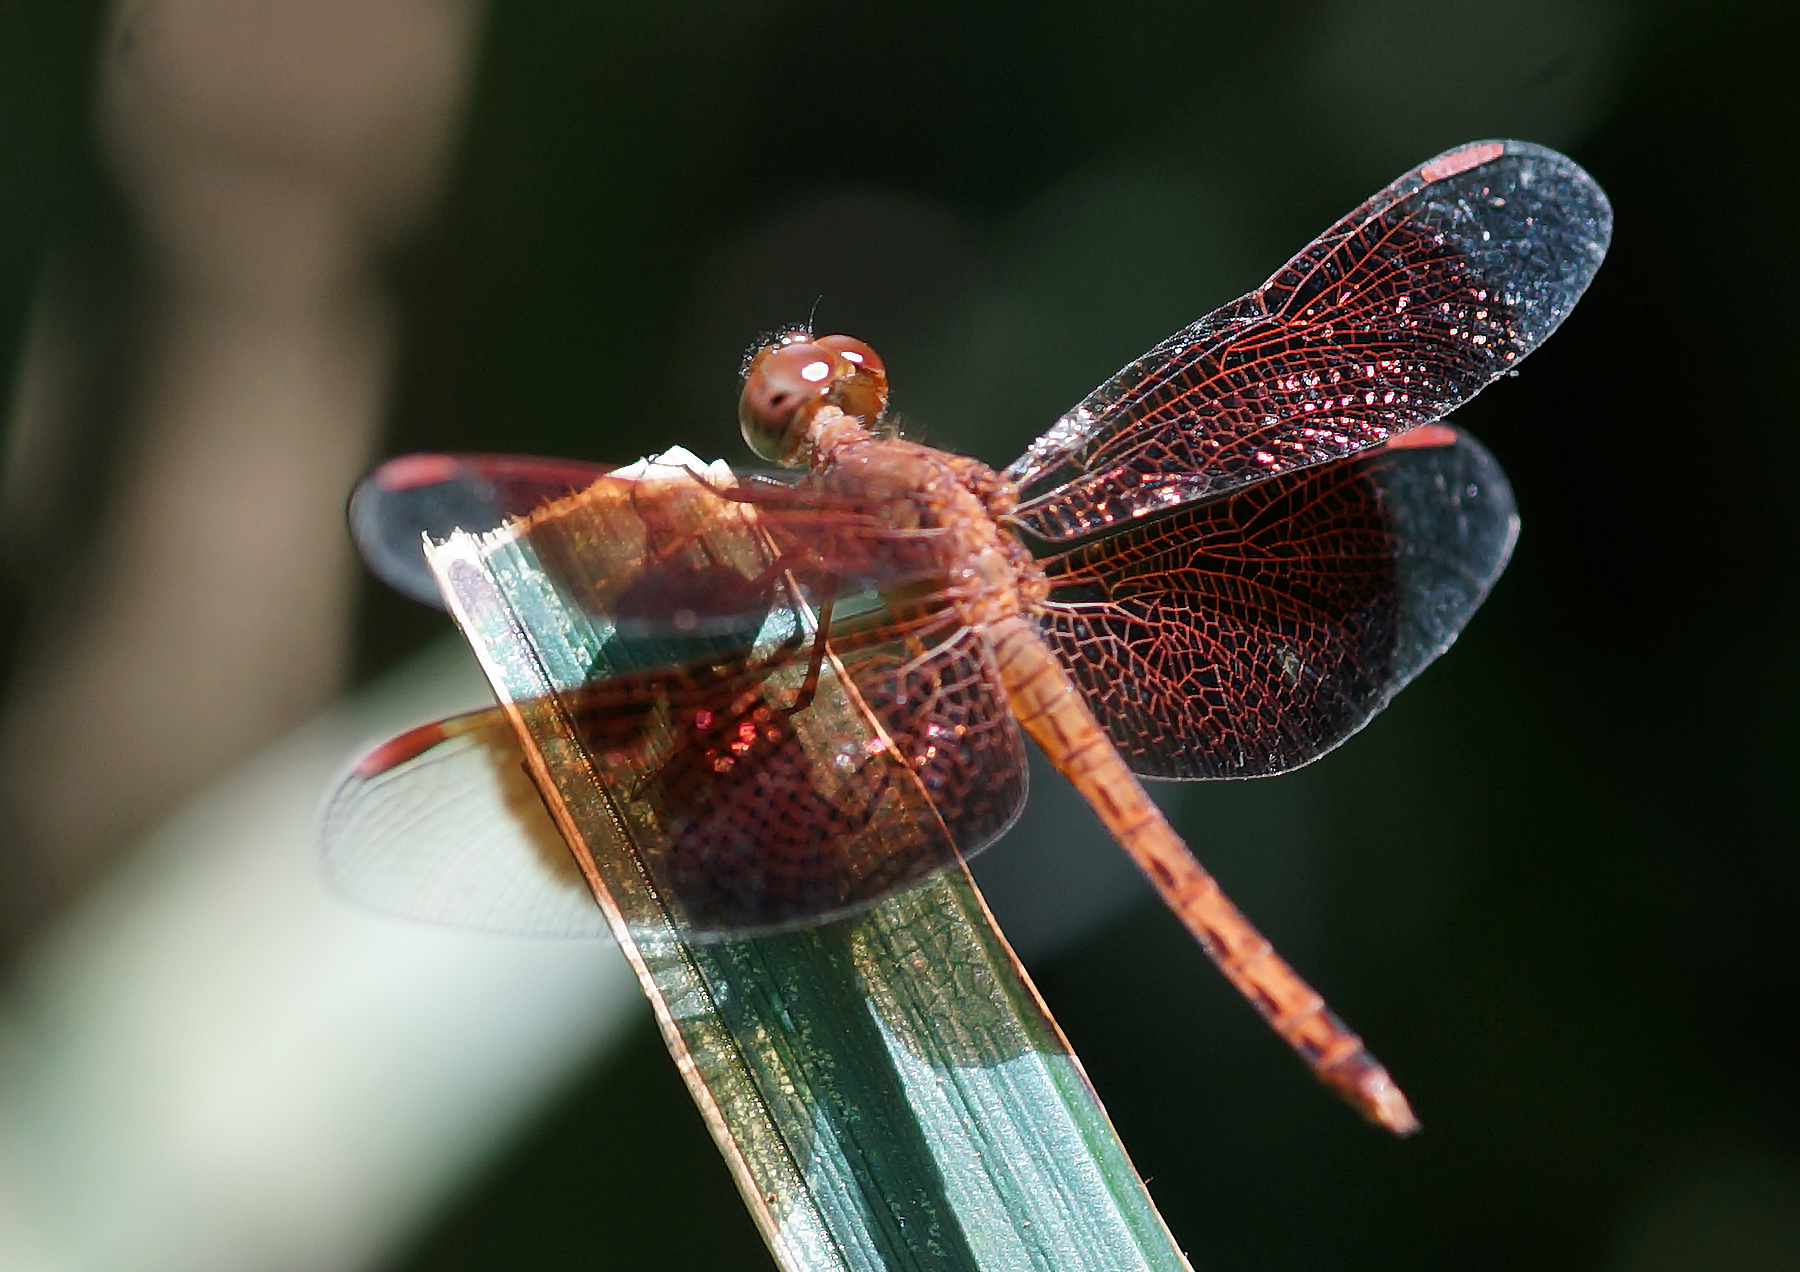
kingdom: Animalia
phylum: Arthropoda
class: Insecta
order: Odonata
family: Libellulidae
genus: Neurothemis
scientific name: Neurothemis fluctuans
